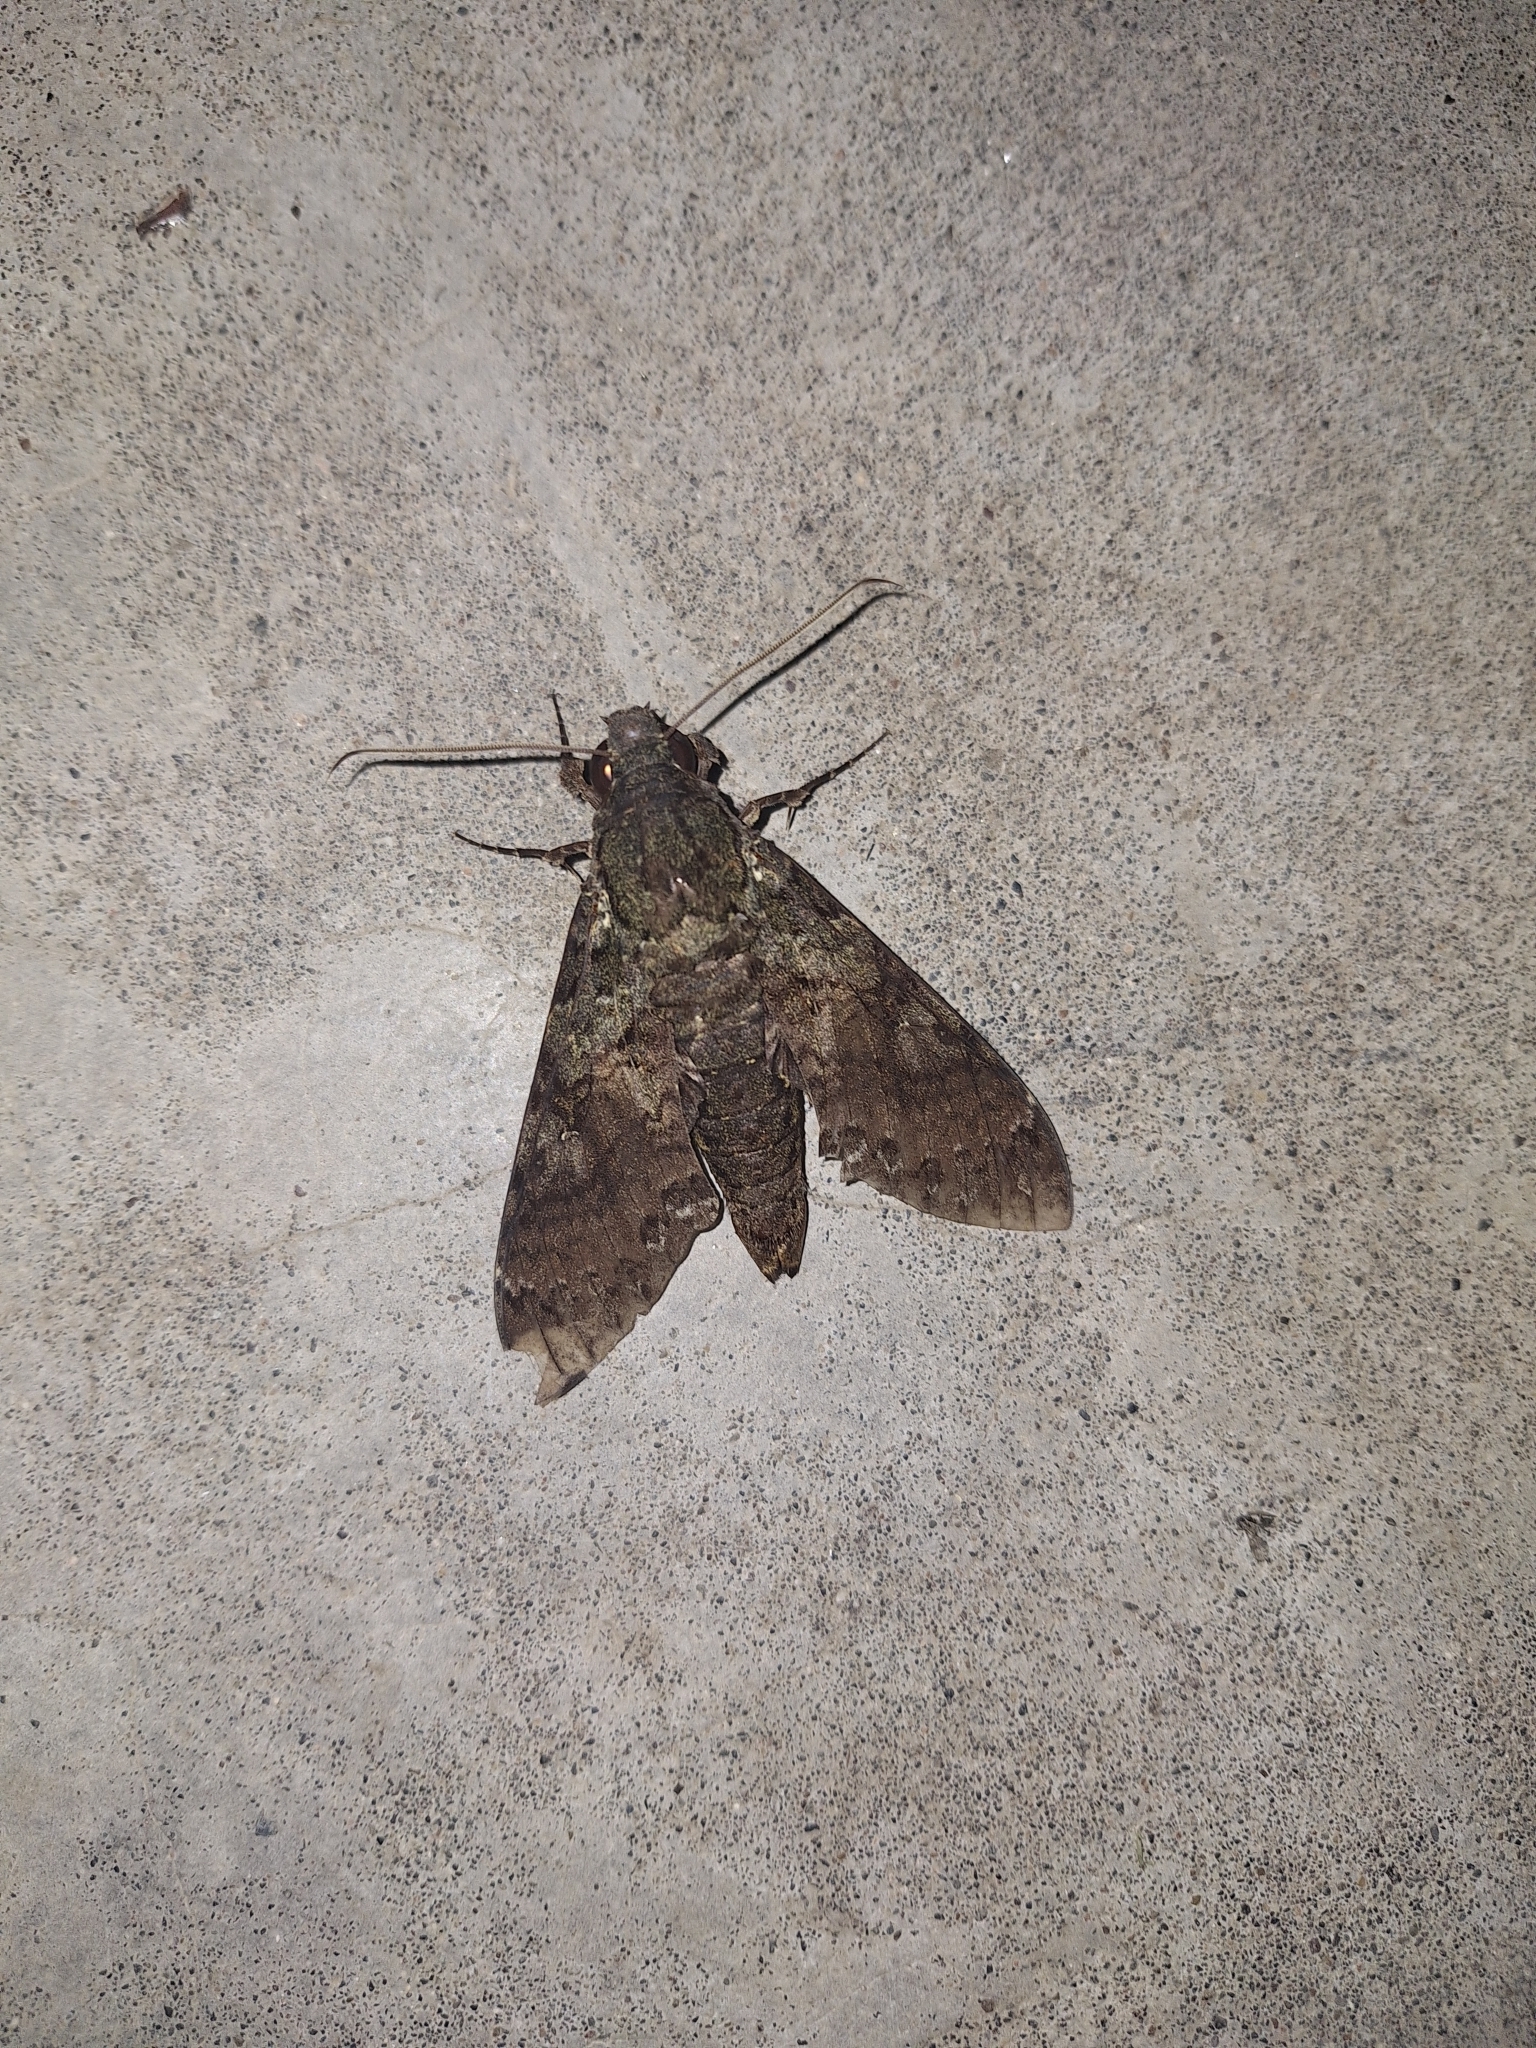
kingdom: Animalia
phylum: Arthropoda
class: Insecta
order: Lepidoptera
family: Sphingidae
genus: Cocytius
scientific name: Cocytius duponchel
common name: Duponchel's sphinx
